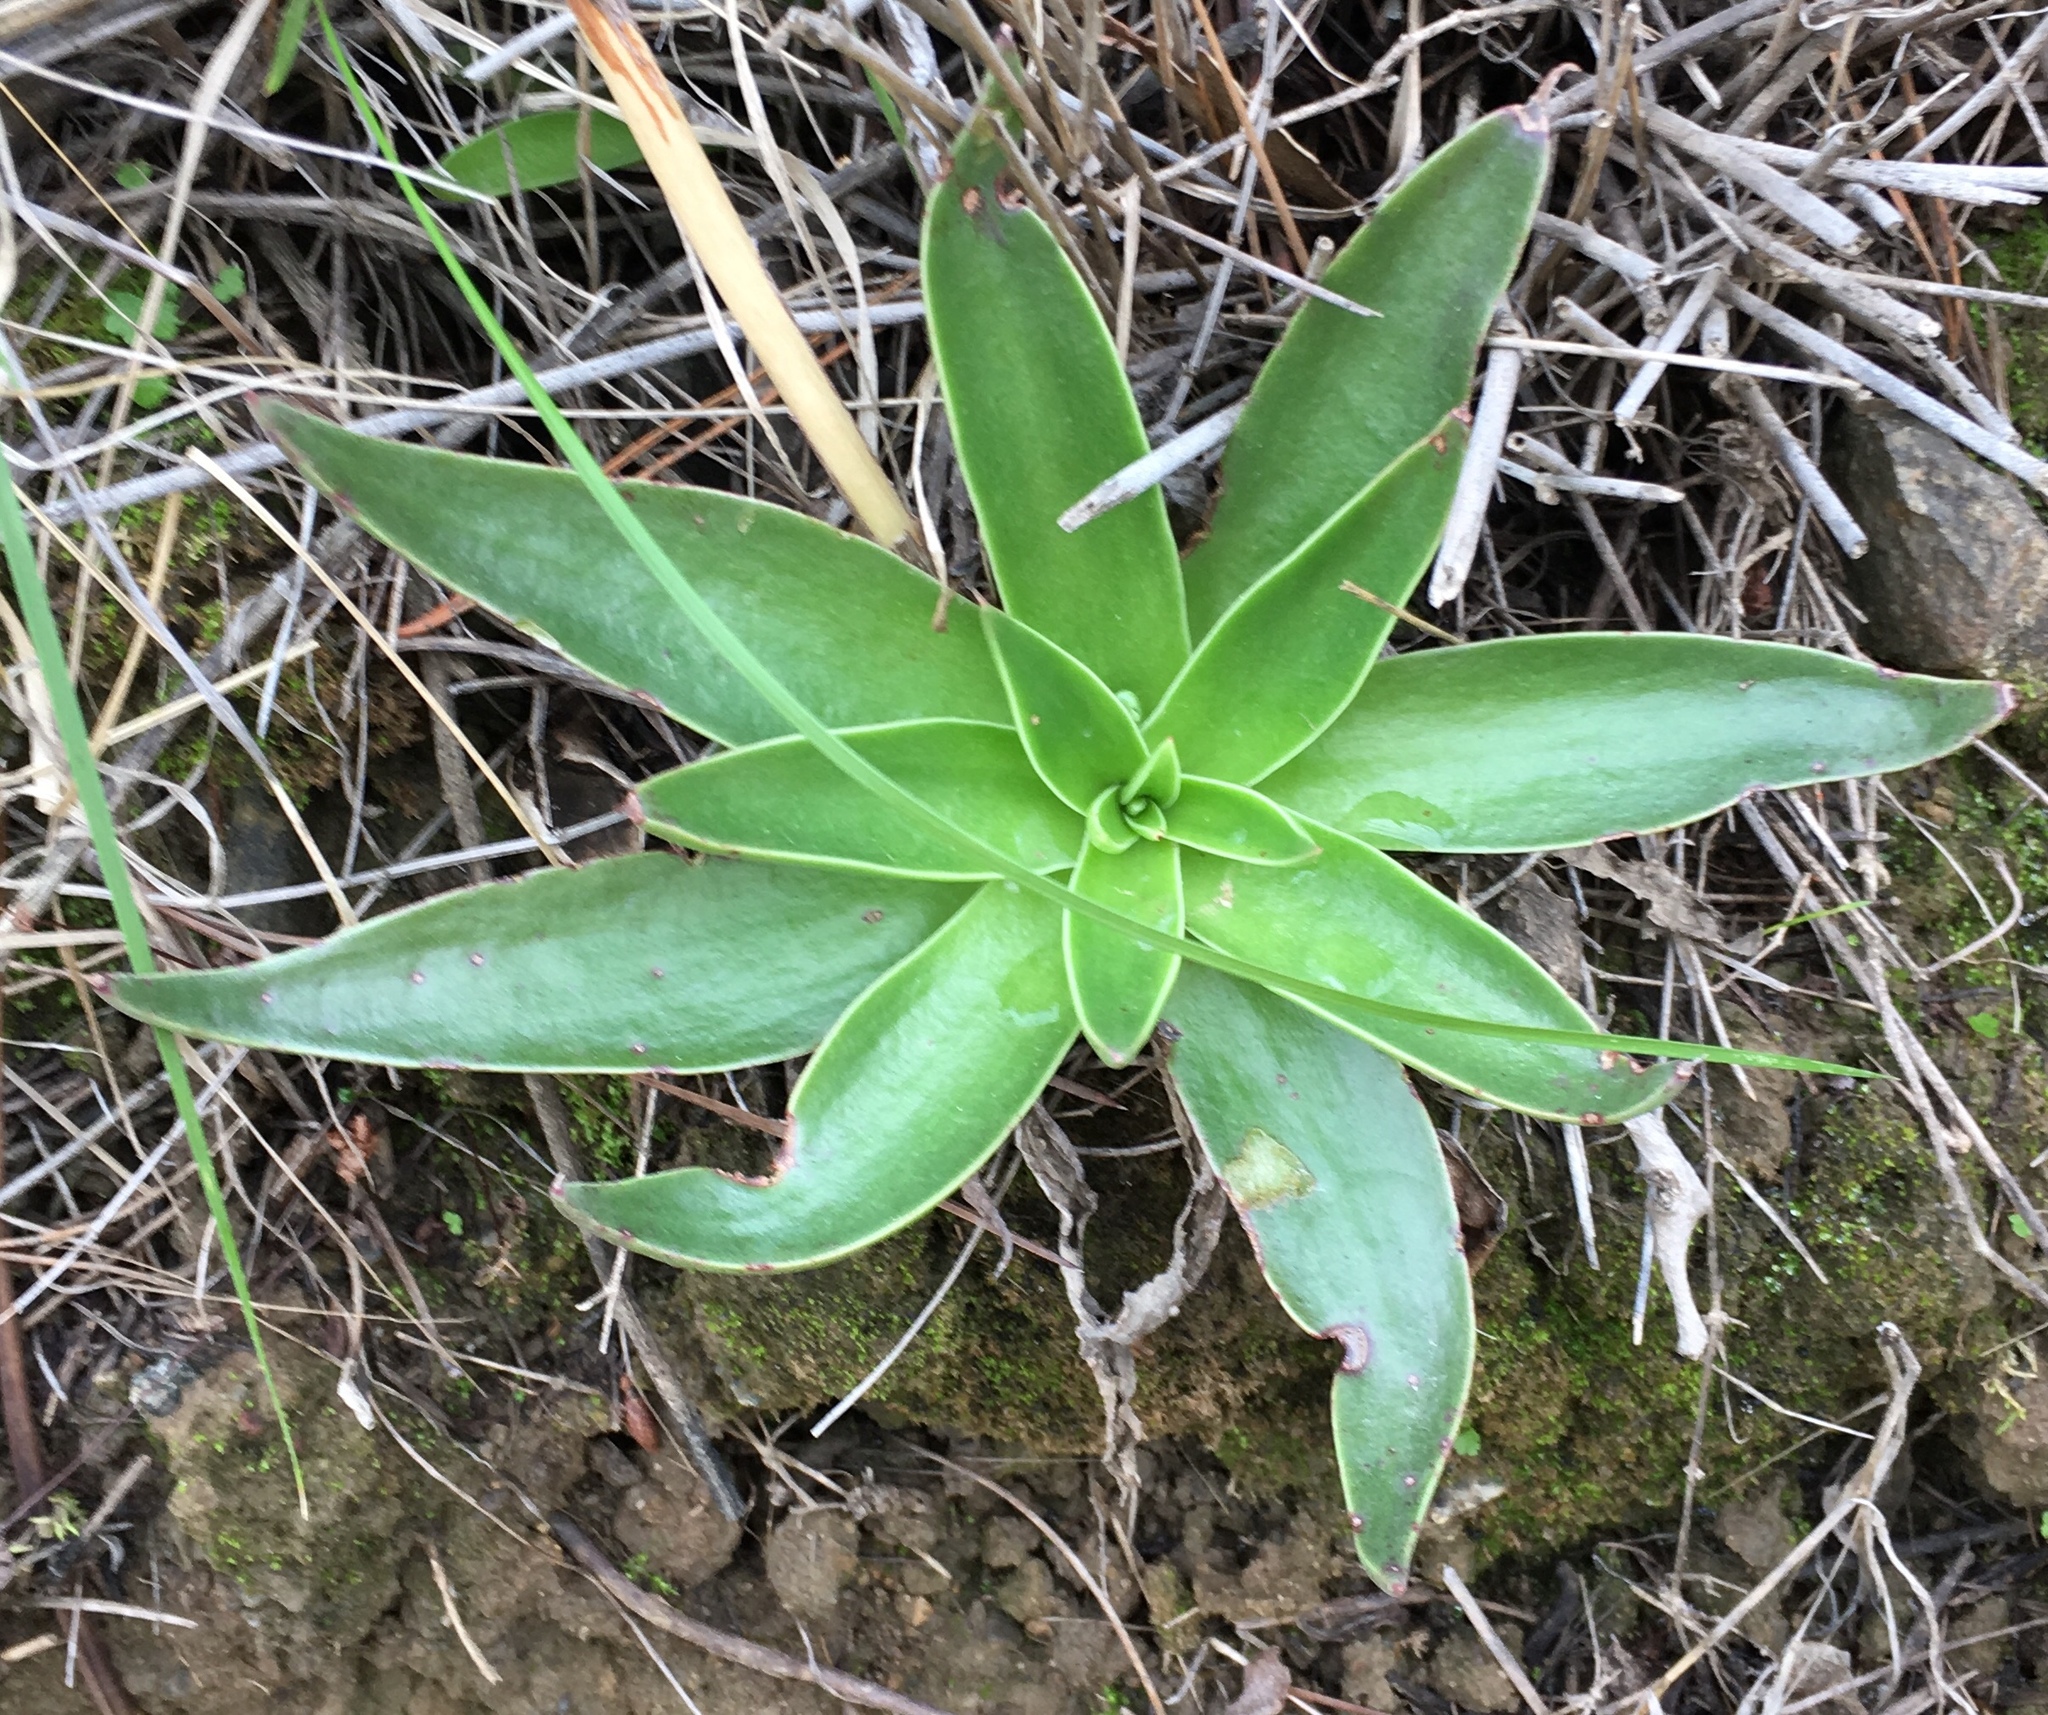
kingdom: Plantae
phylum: Tracheophyta
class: Magnoliopsida
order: Saxifragales
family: Crassulaceae
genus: Dudleya
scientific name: Dudleya lanceolata
